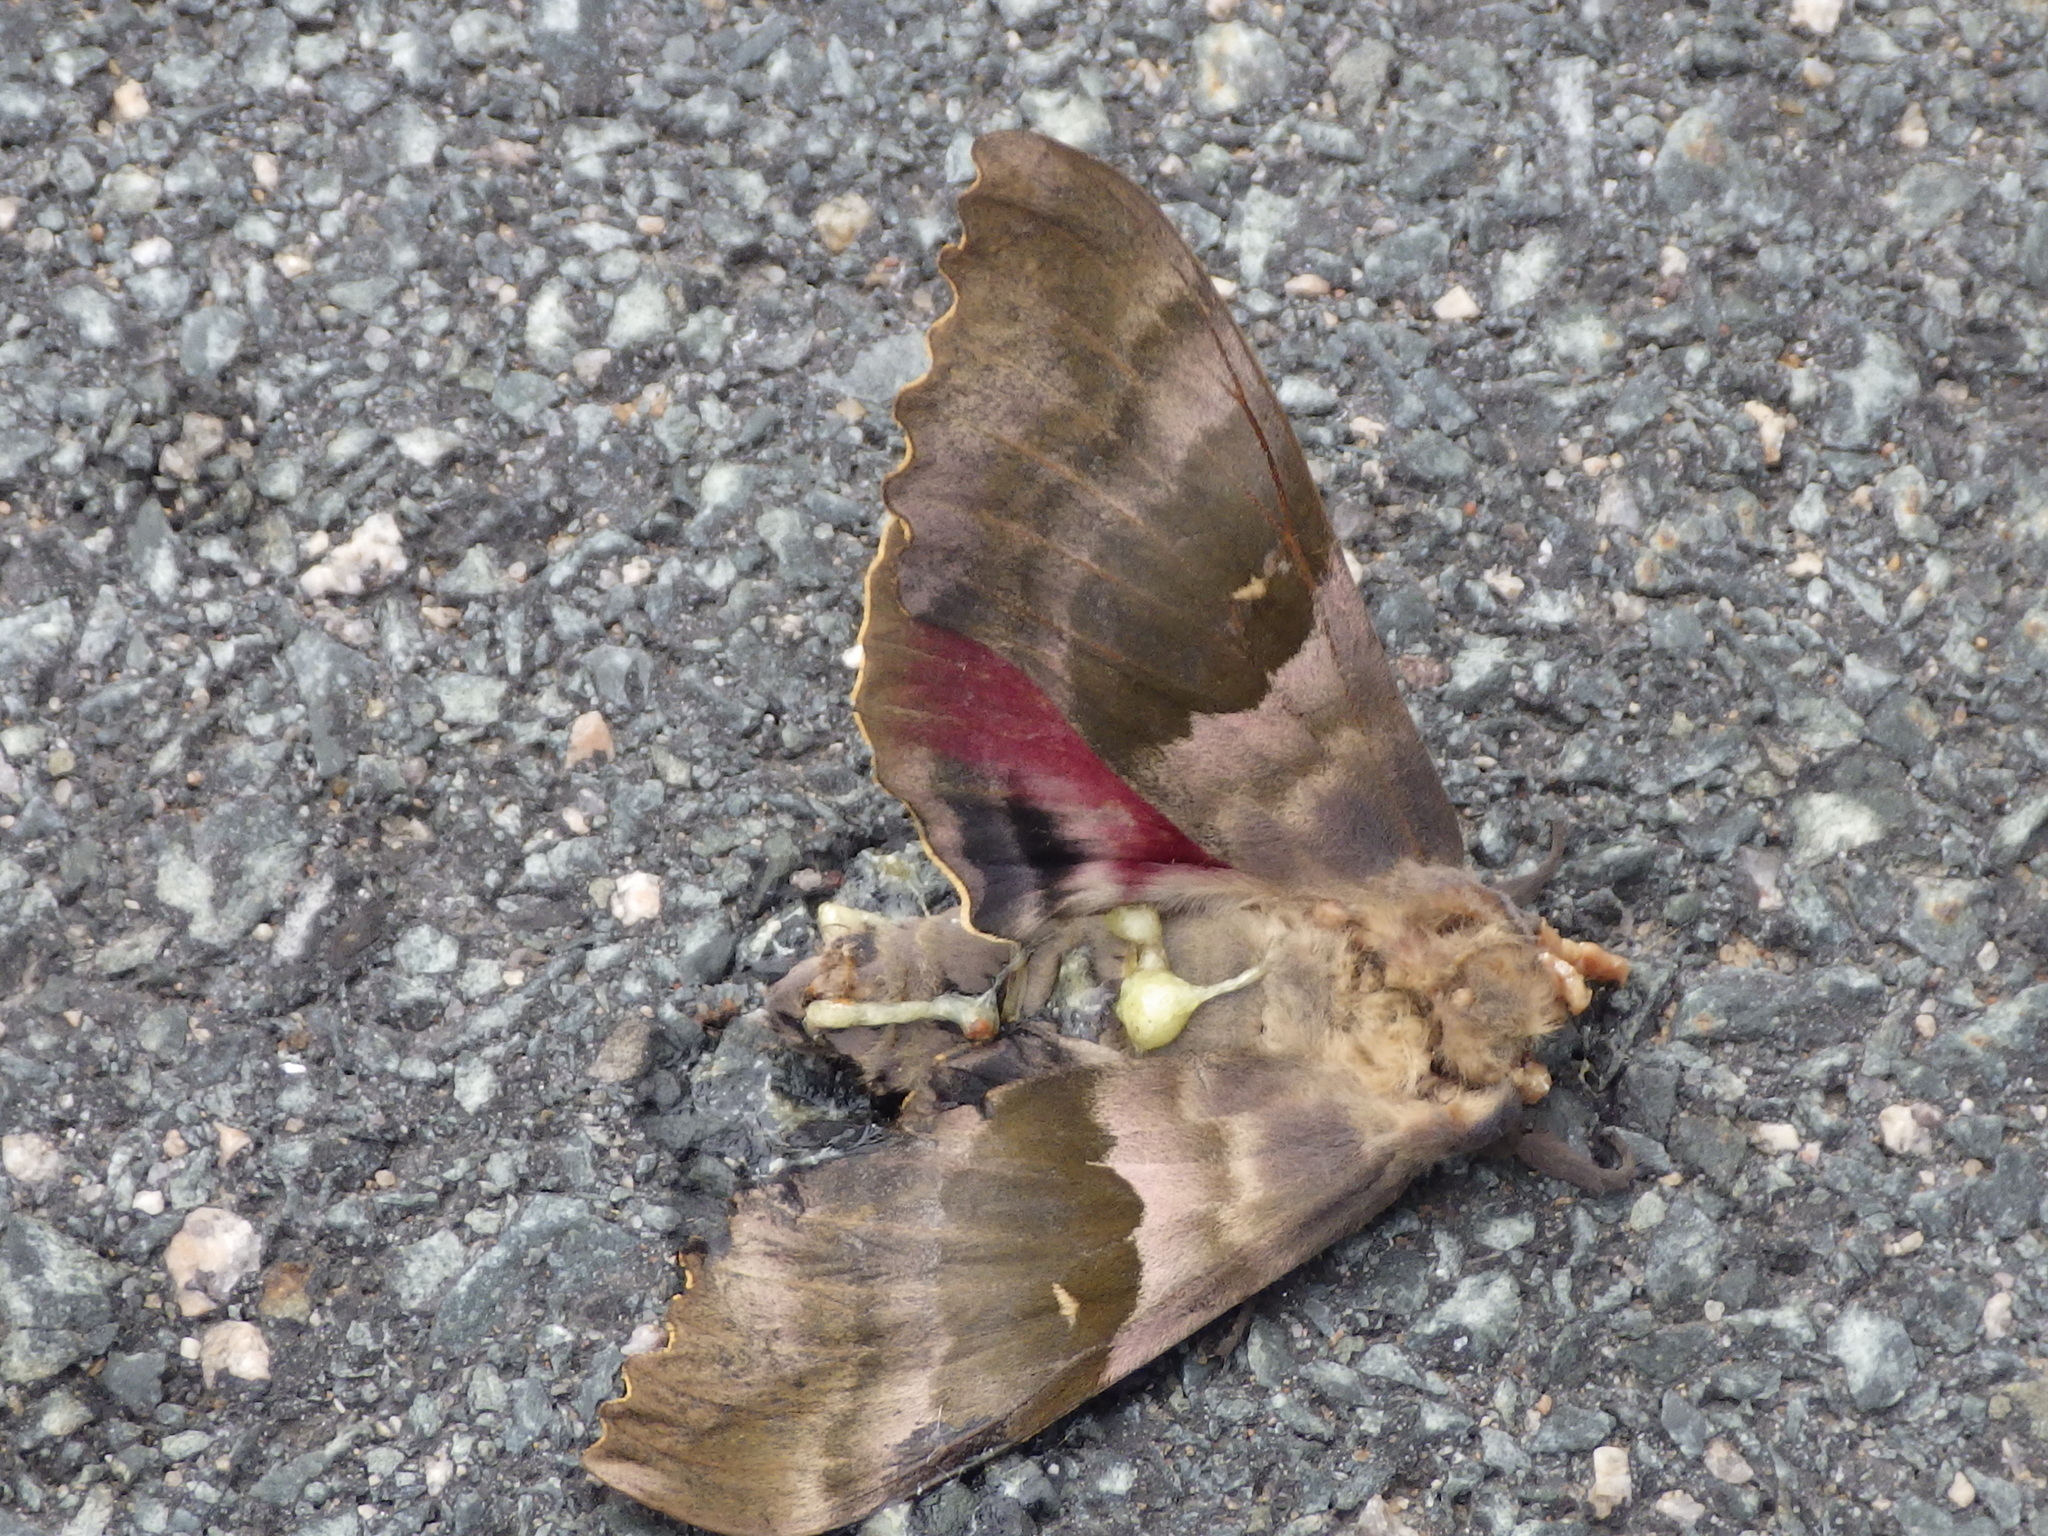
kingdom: Animalia
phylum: Arthropoda
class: Insecta
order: Lepidoptera
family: Sphingidae
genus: Pachysphinx
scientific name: Pachysphinx modesta
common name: Big poplar sphinx
